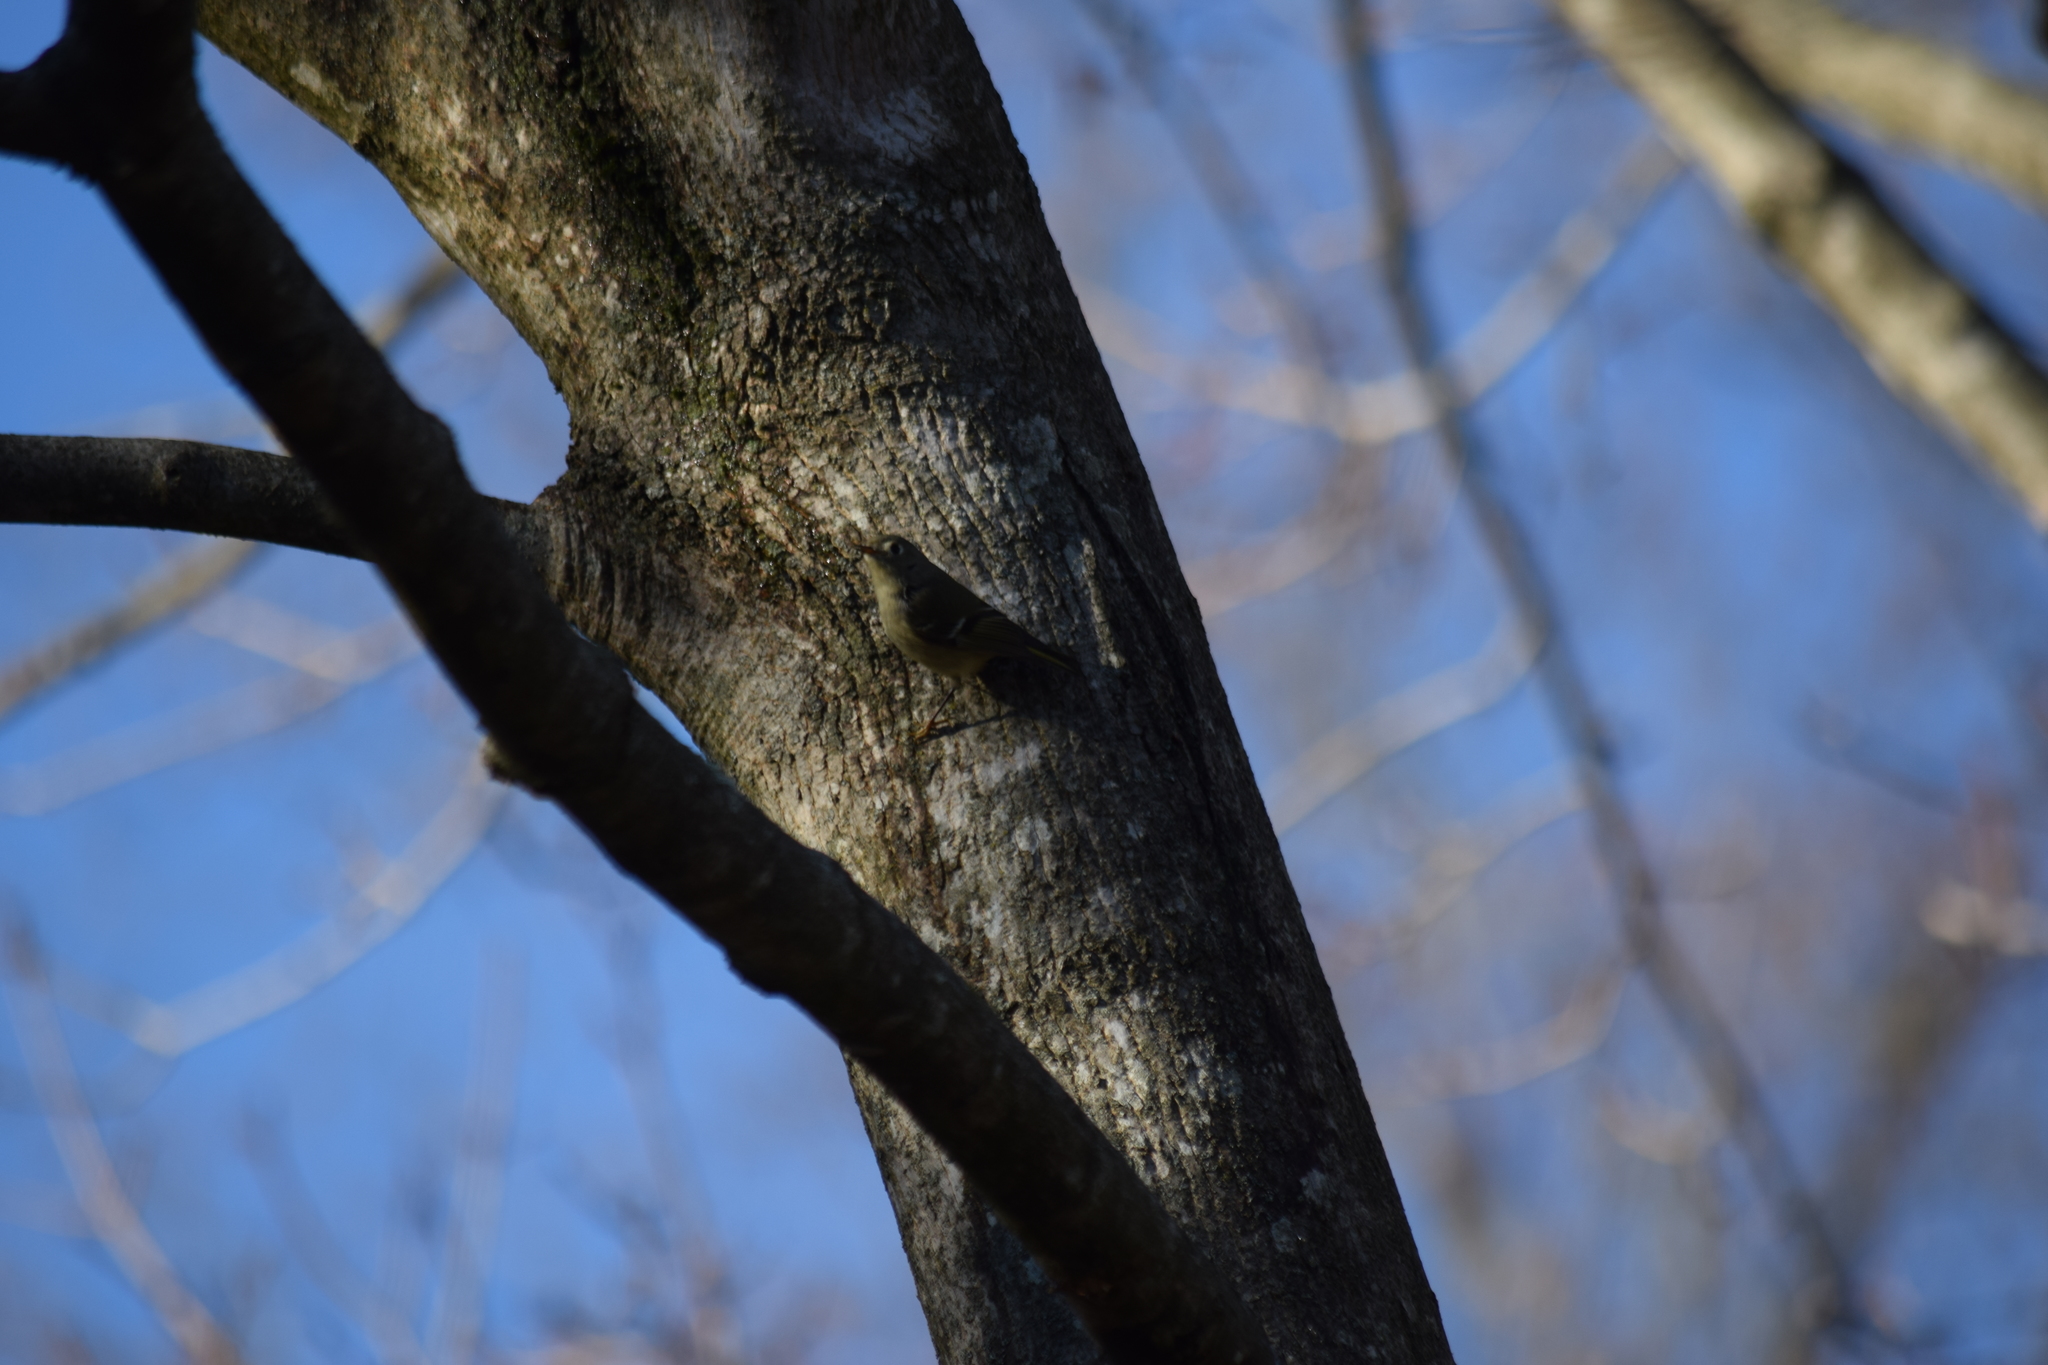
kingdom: Animalia
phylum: Chordata
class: Aves
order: Passeriformes
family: Regulidae
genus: Regulus
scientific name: Regulus calendula
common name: Ruby-crowned kinglet
